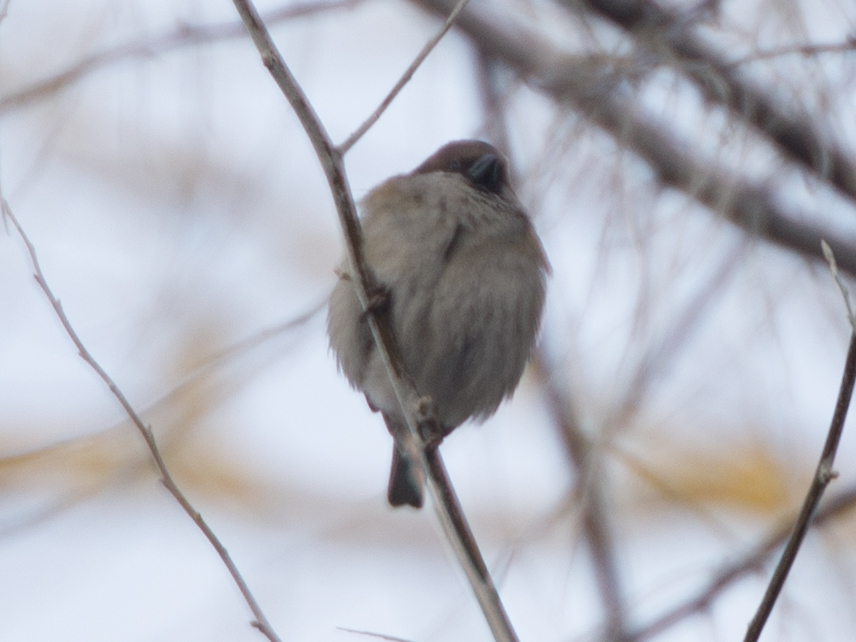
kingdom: Animalia
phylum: Chordata
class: Aves
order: Passeriformes
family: Passeridae
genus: Passer
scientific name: Passer montanus
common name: Eurasian tree sparrow
